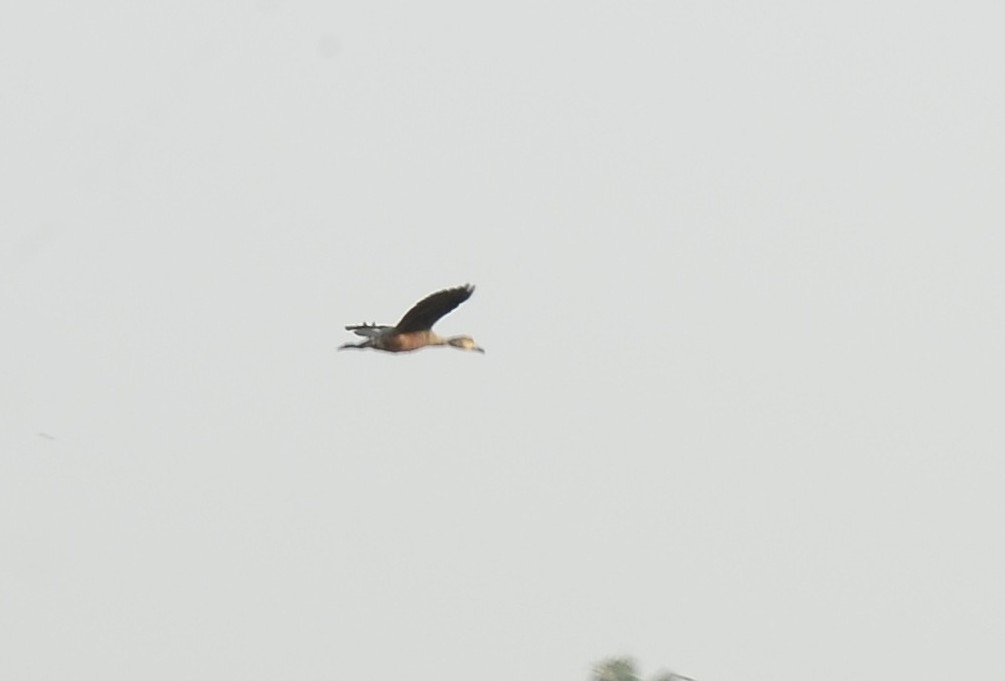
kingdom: Animalia
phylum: Chordata
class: Aves
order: Anseriformes
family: Anatidae
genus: Dendrocygna
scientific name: Dendrocygna javanica
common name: Lesser whistling-duck
